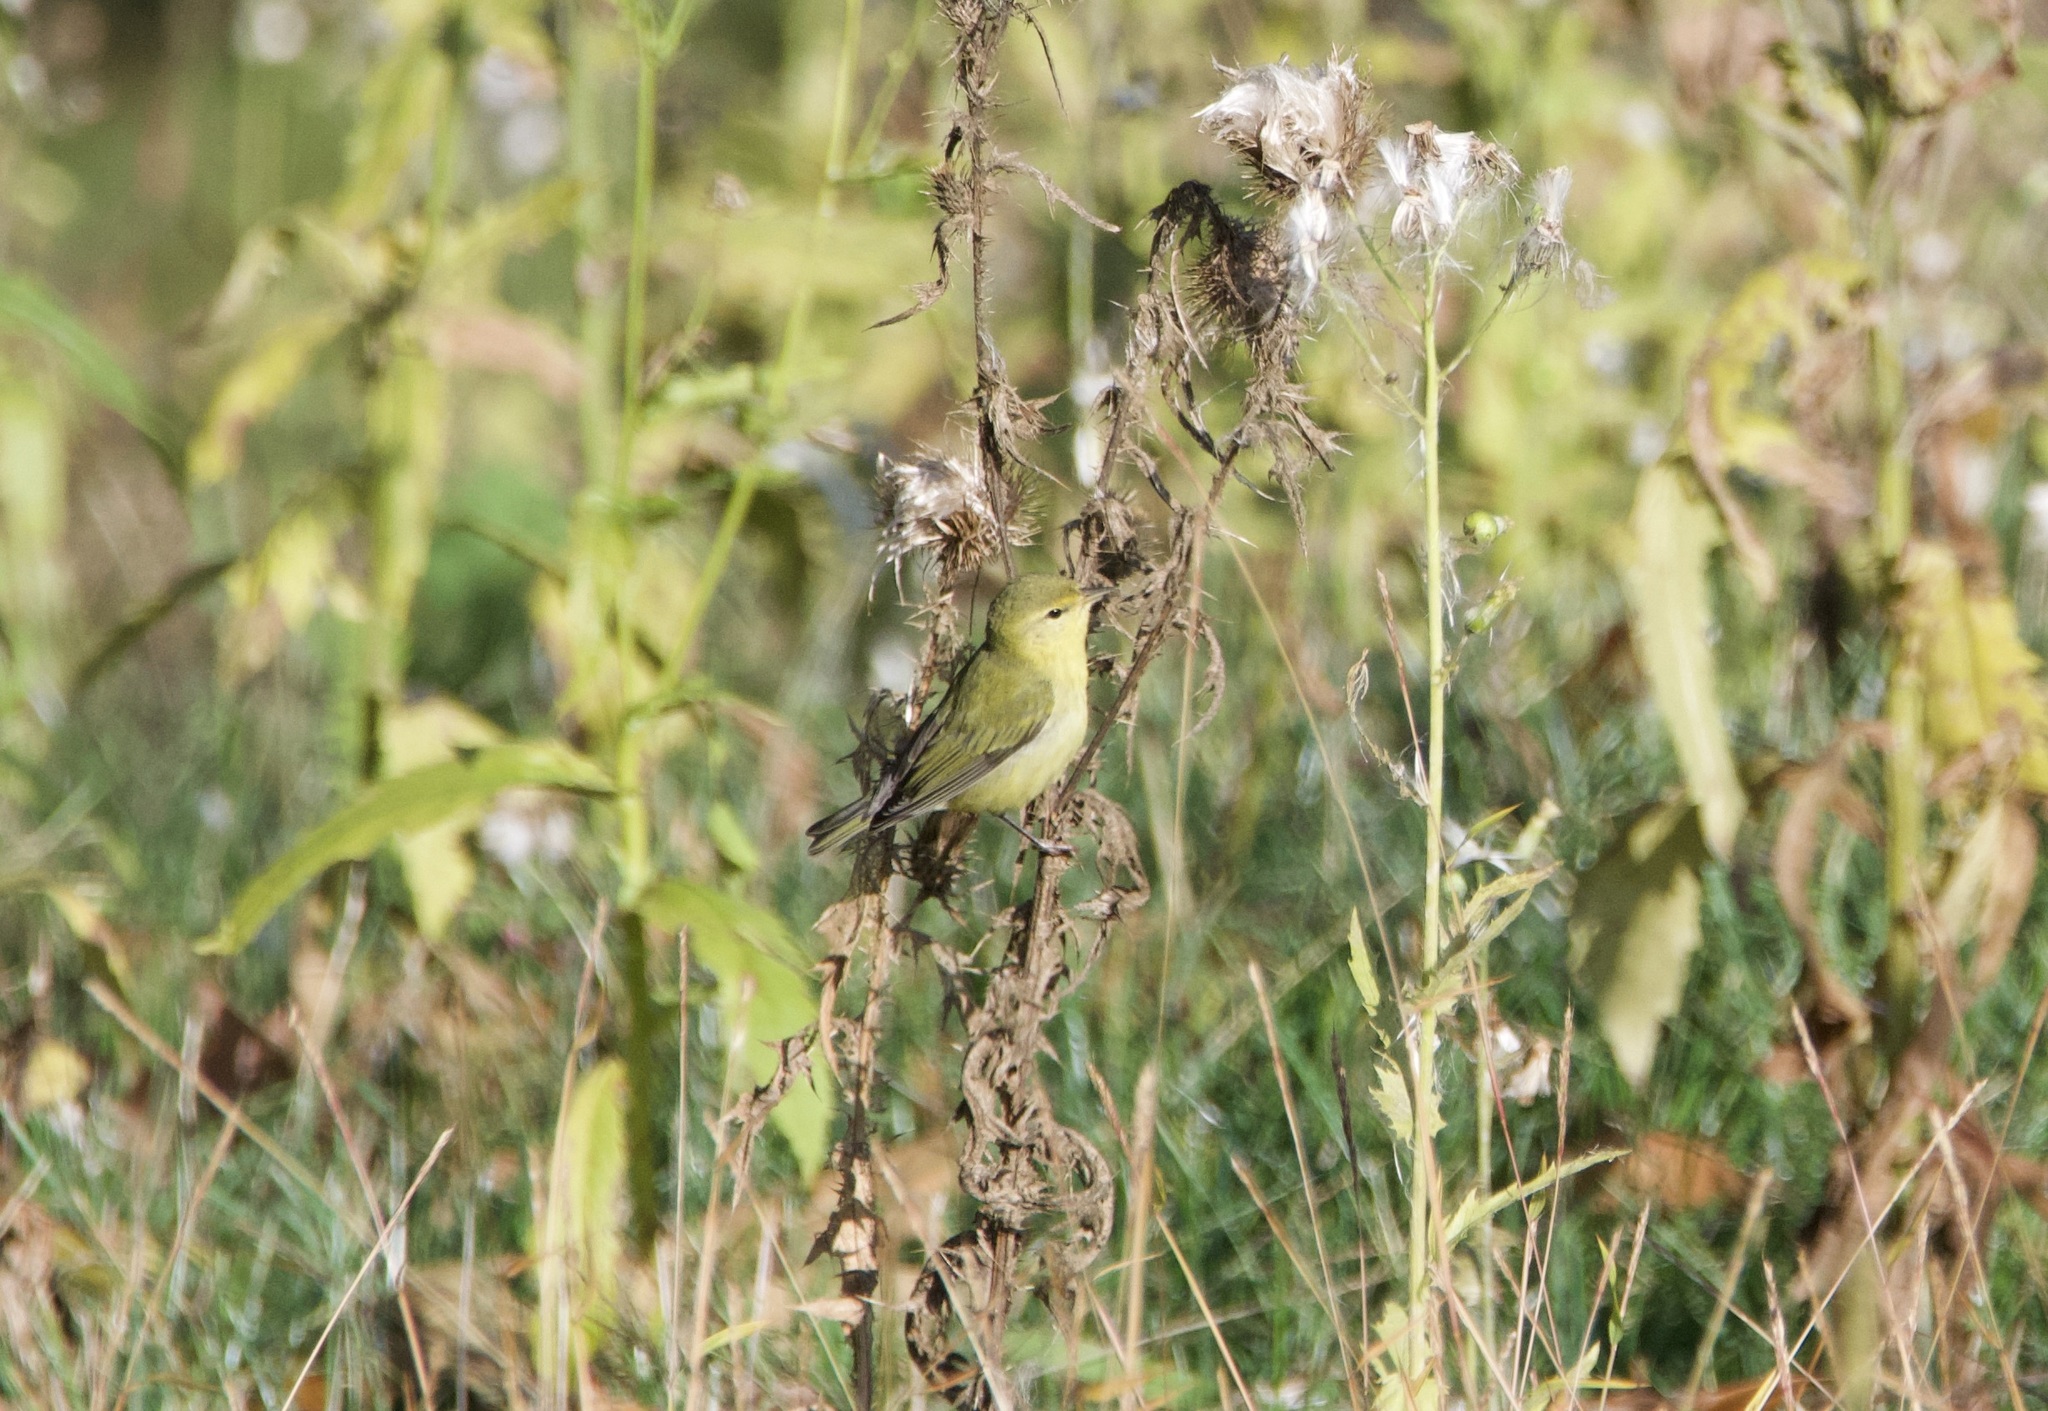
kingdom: Animalia
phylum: Chordata
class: Aves
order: Passeriformes
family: Parulidae
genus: Leiothlypis
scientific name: Leiothlypis peregrina
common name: Tennessee warbler
